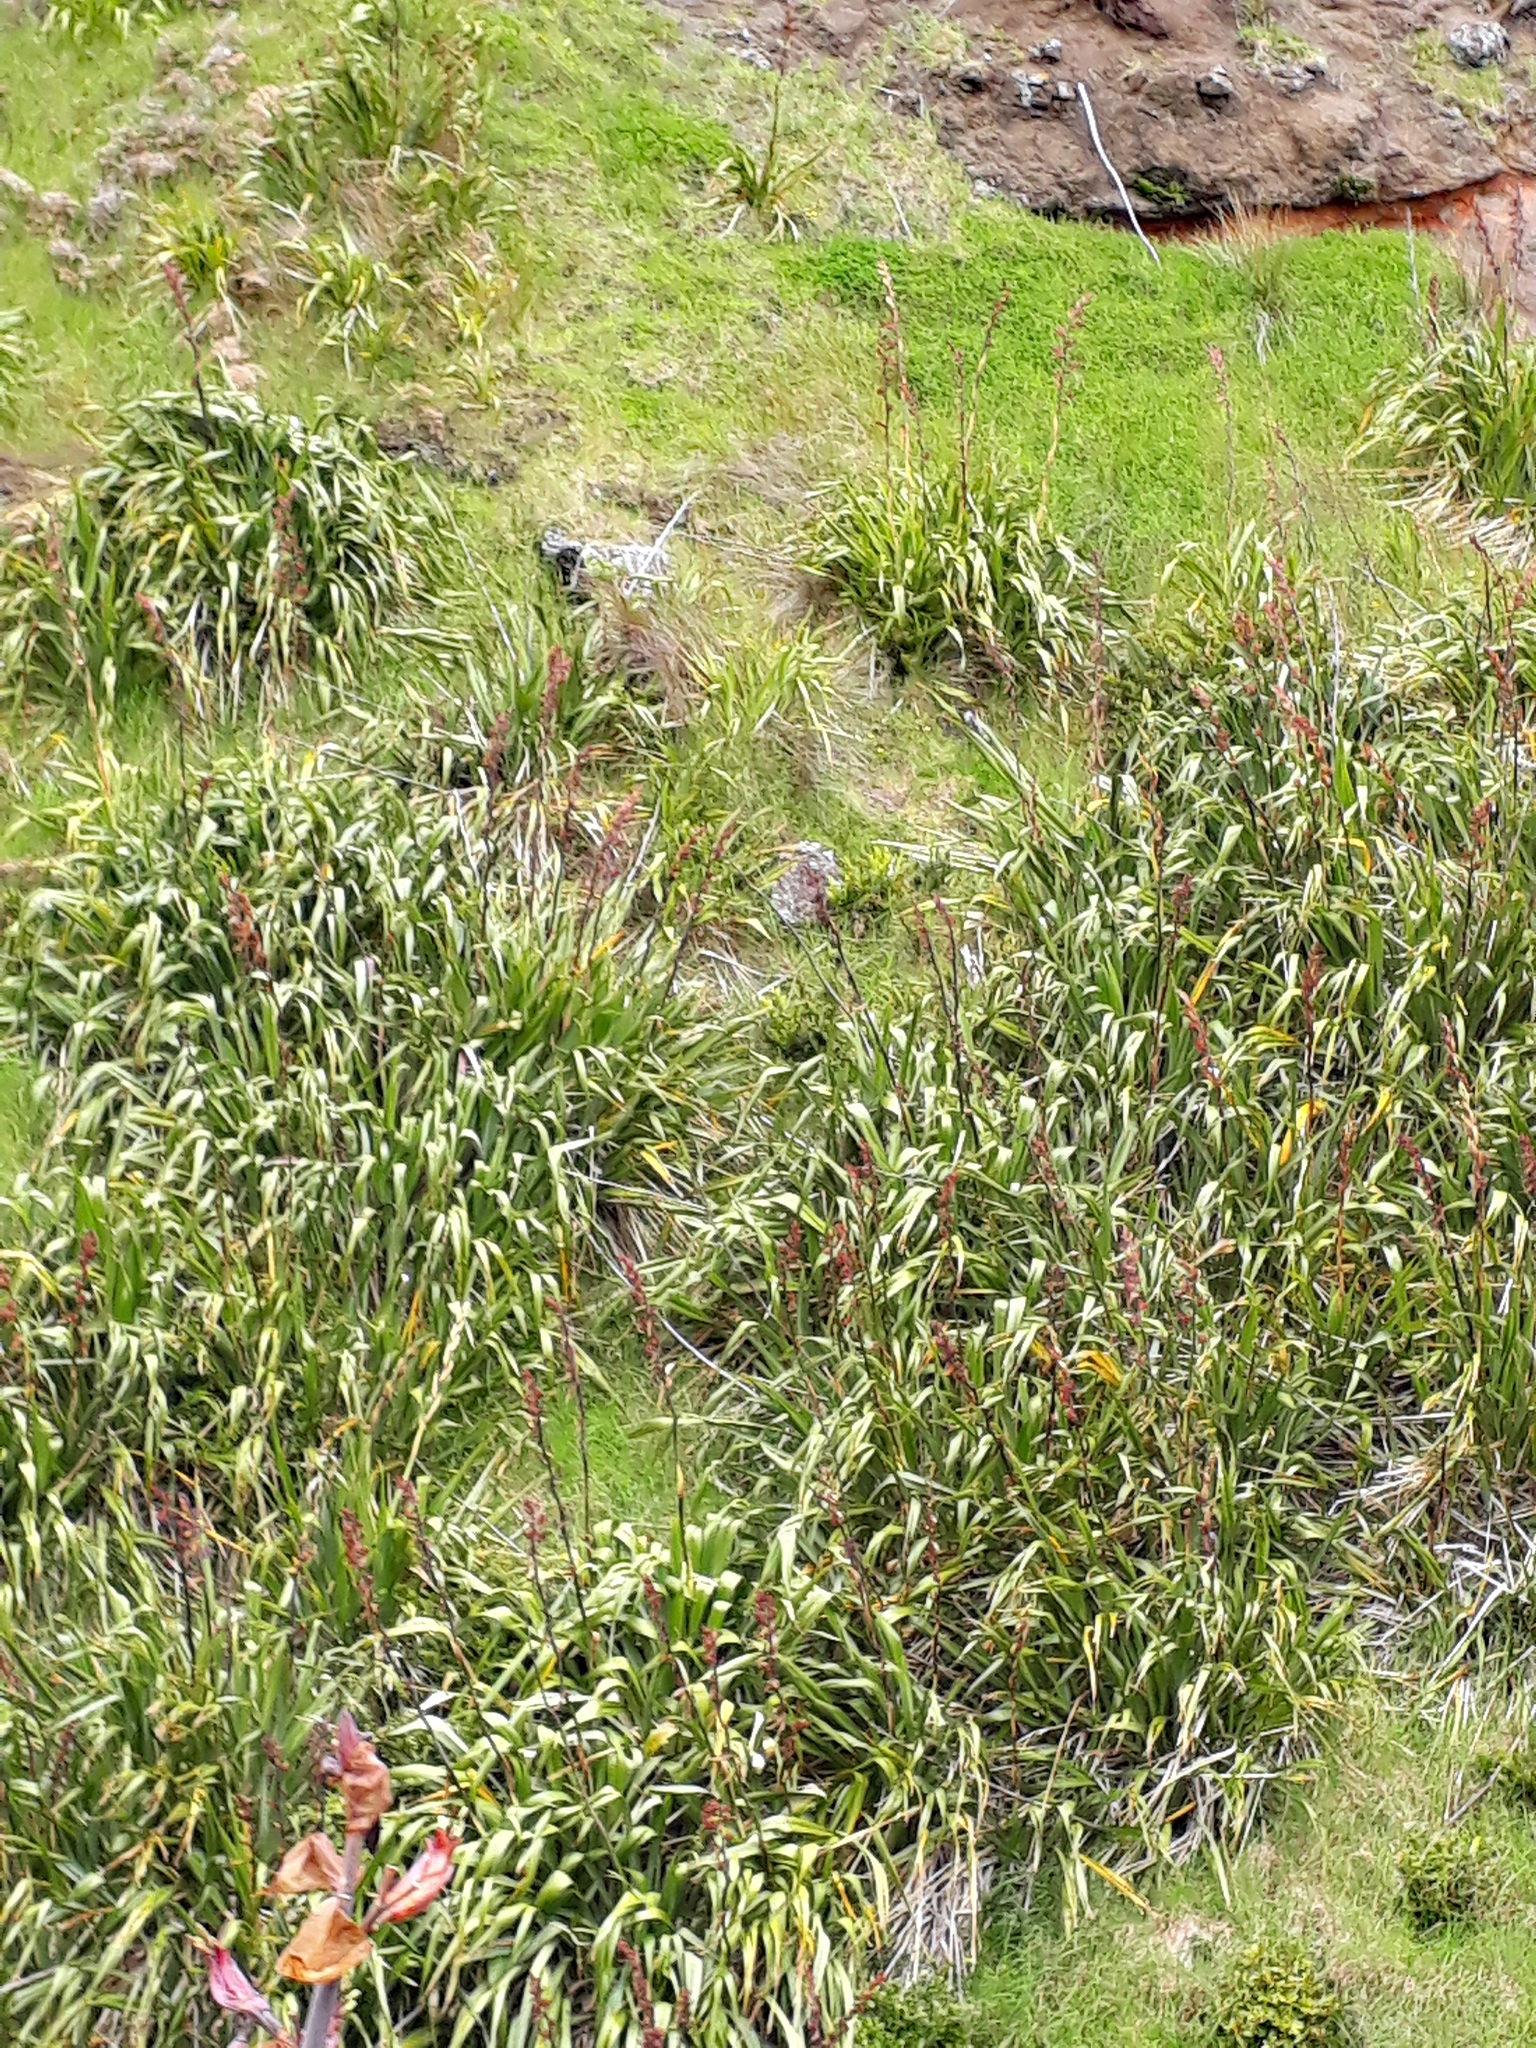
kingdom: Plantae
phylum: Tracheophyta
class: Liliopsida
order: Asparagales
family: Asphodelaceae
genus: Phormium
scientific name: Phormium tenax
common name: New zealand flax
